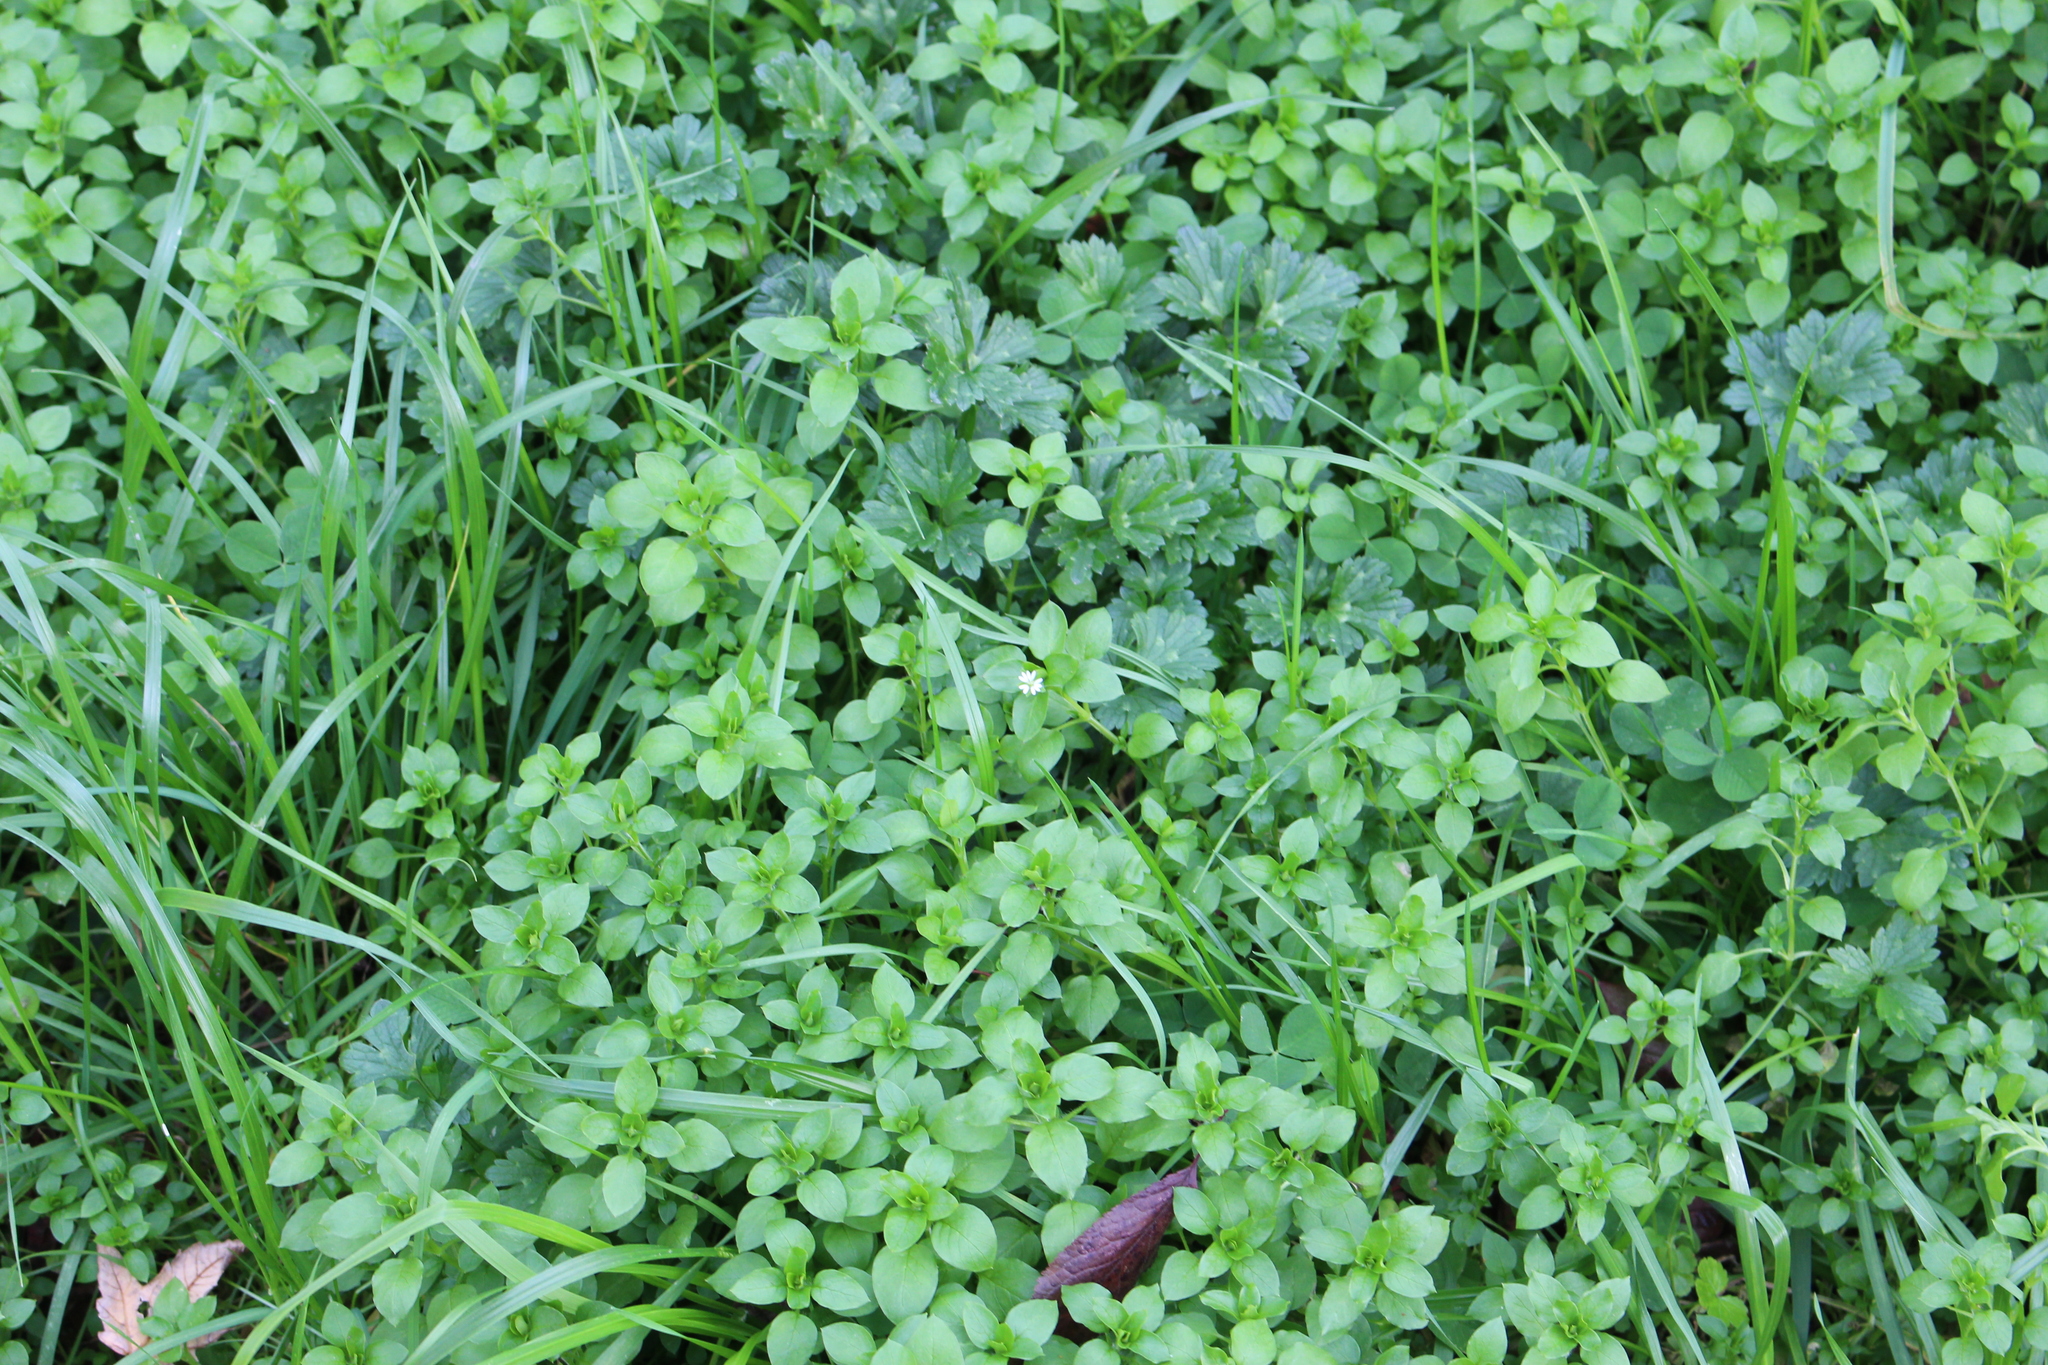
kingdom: Plantae
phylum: Tracheophyta
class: Magnoliopsida
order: Caryophyllales
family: Caryophyllaceae
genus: Stellaria
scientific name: Stellaria media
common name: Common chickweed
